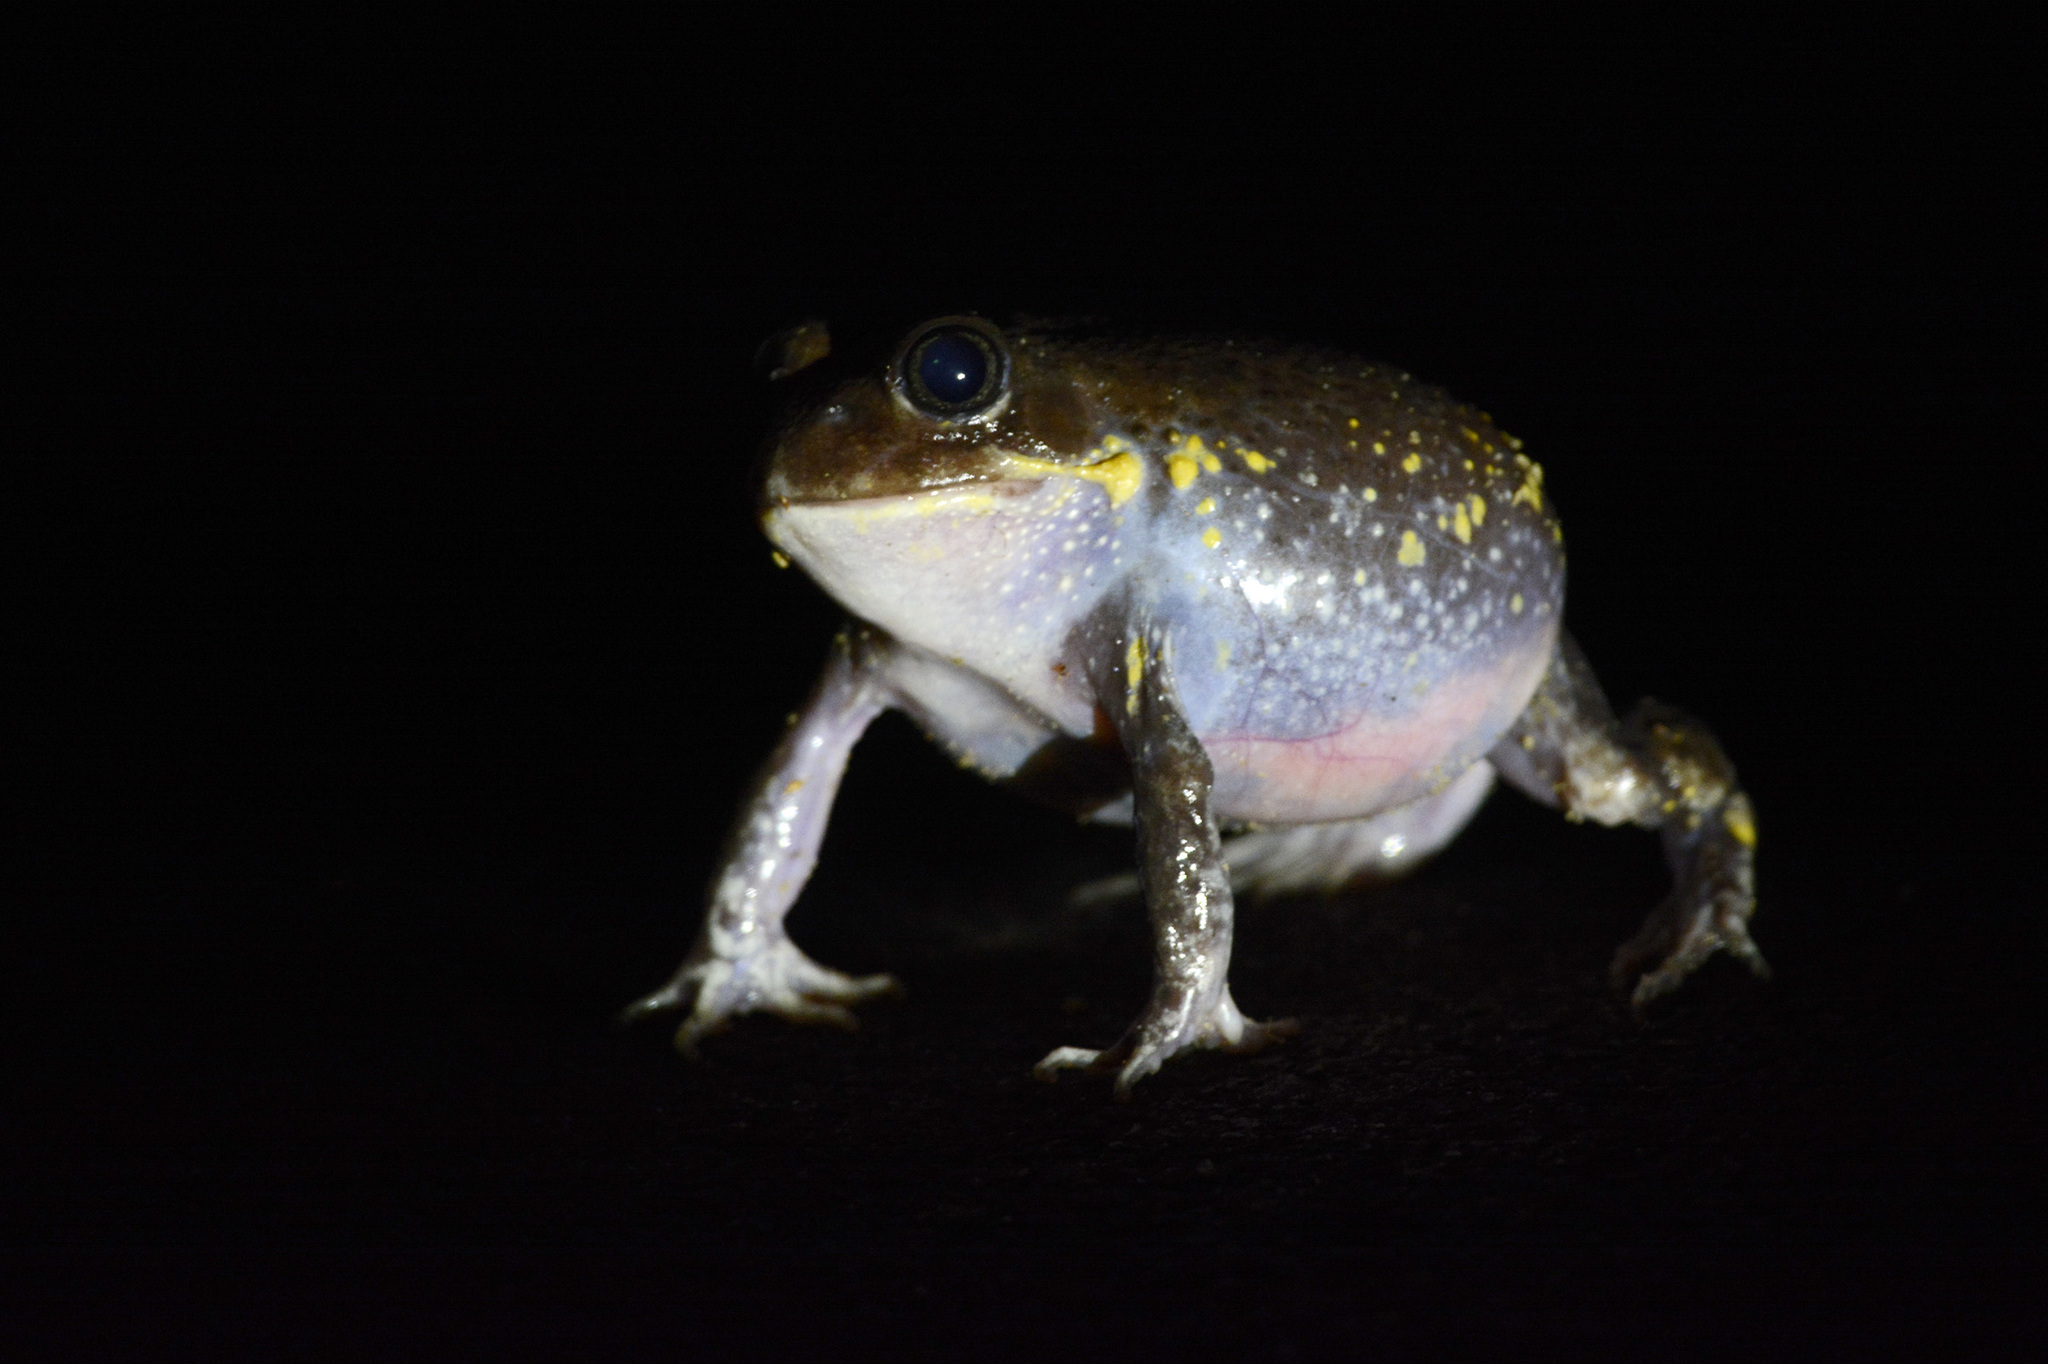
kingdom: Animalia
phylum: Chordata
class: Amphibia
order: Anura
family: Limnodynastidae
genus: Heleioporus
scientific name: Heleioporus australiacus
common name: Eastern owl frog
